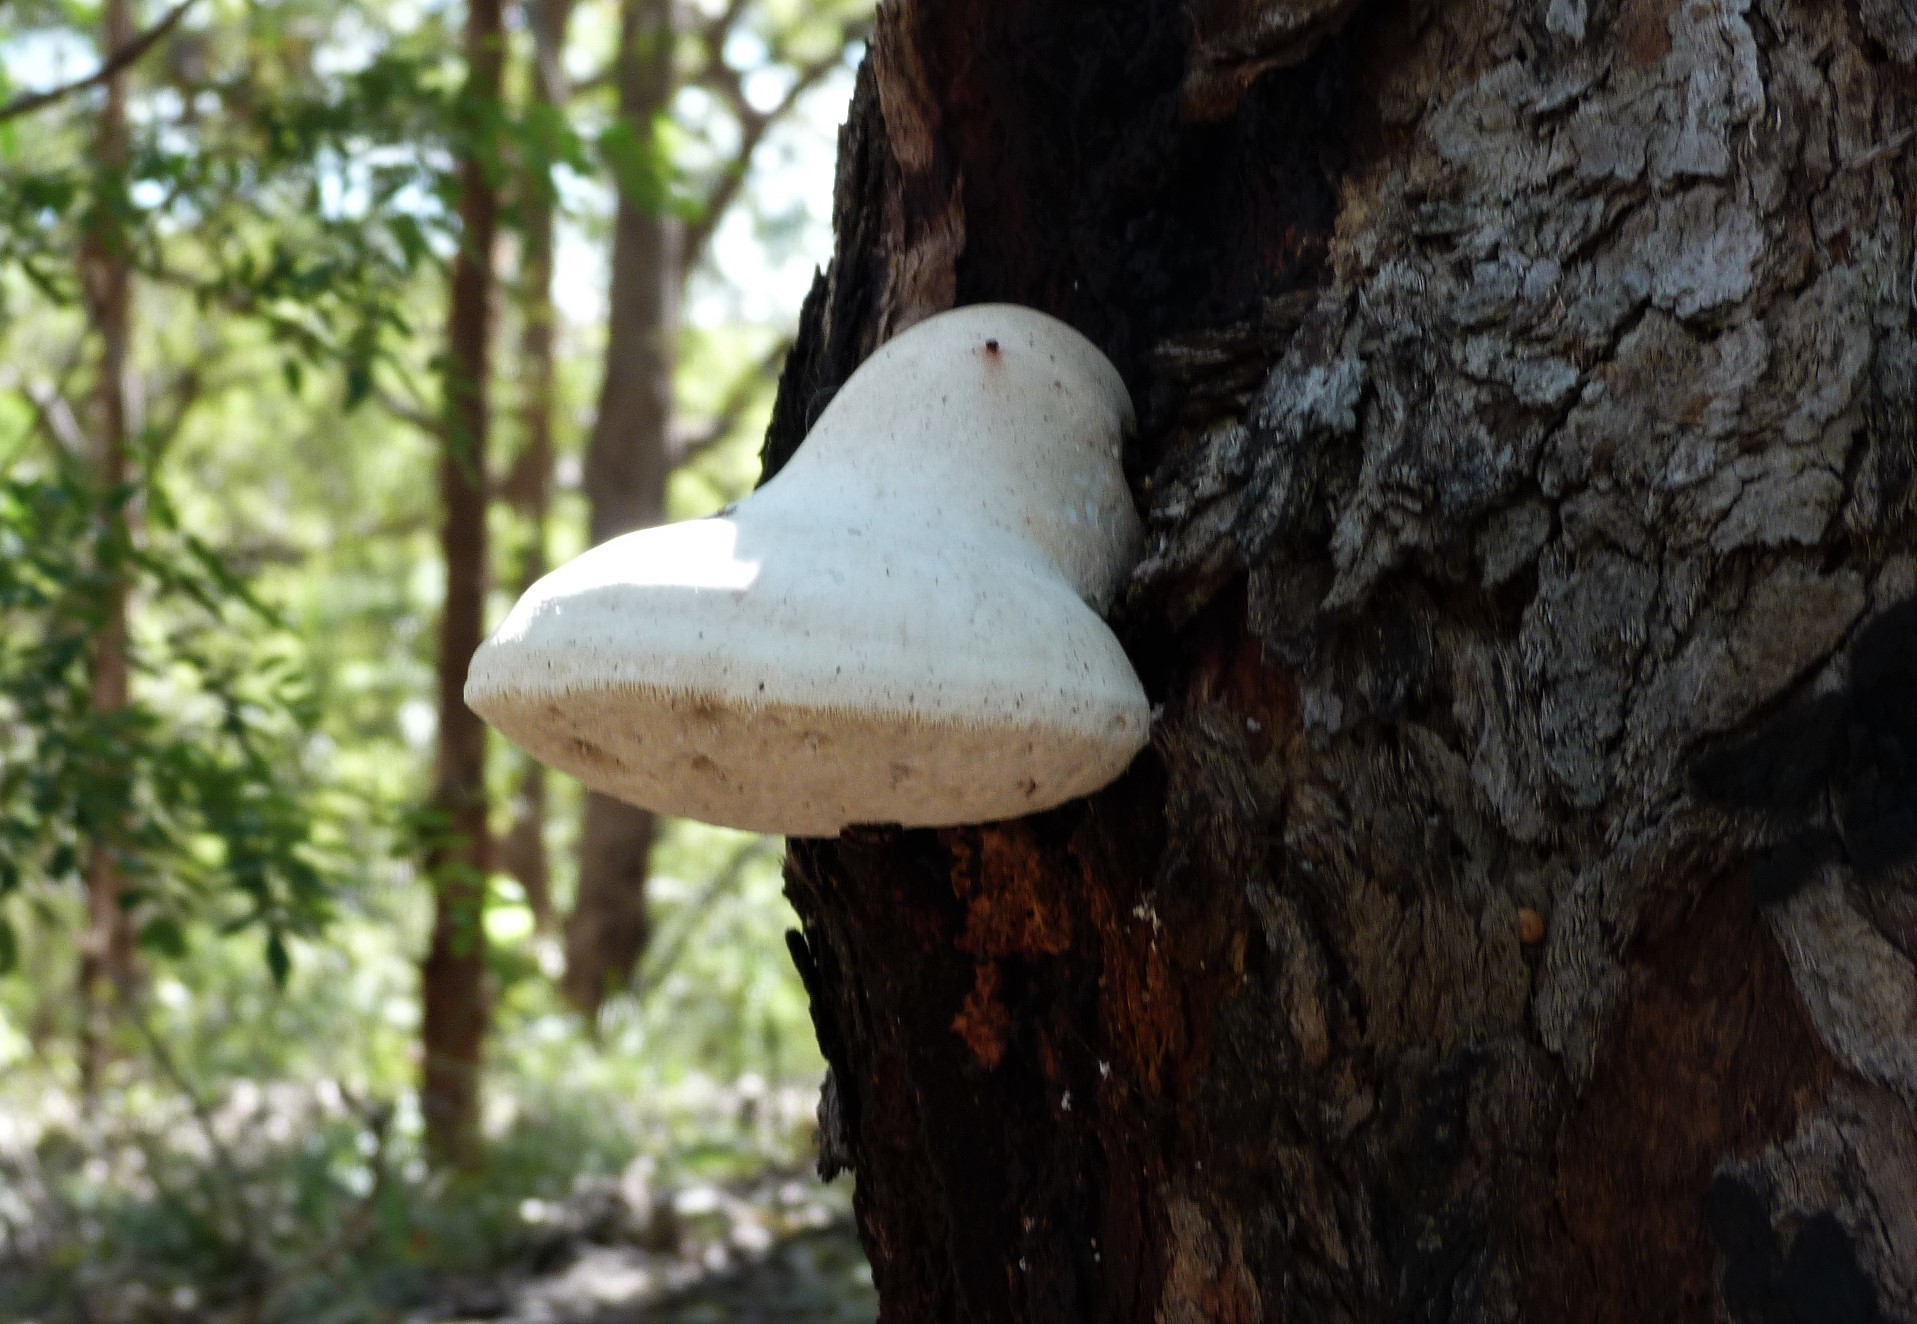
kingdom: Fungi
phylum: Basidiomycota
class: Agaricomycetes
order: Polyporales
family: Laetiporaceae
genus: Laetiporus
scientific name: Laetiporus portentosus
